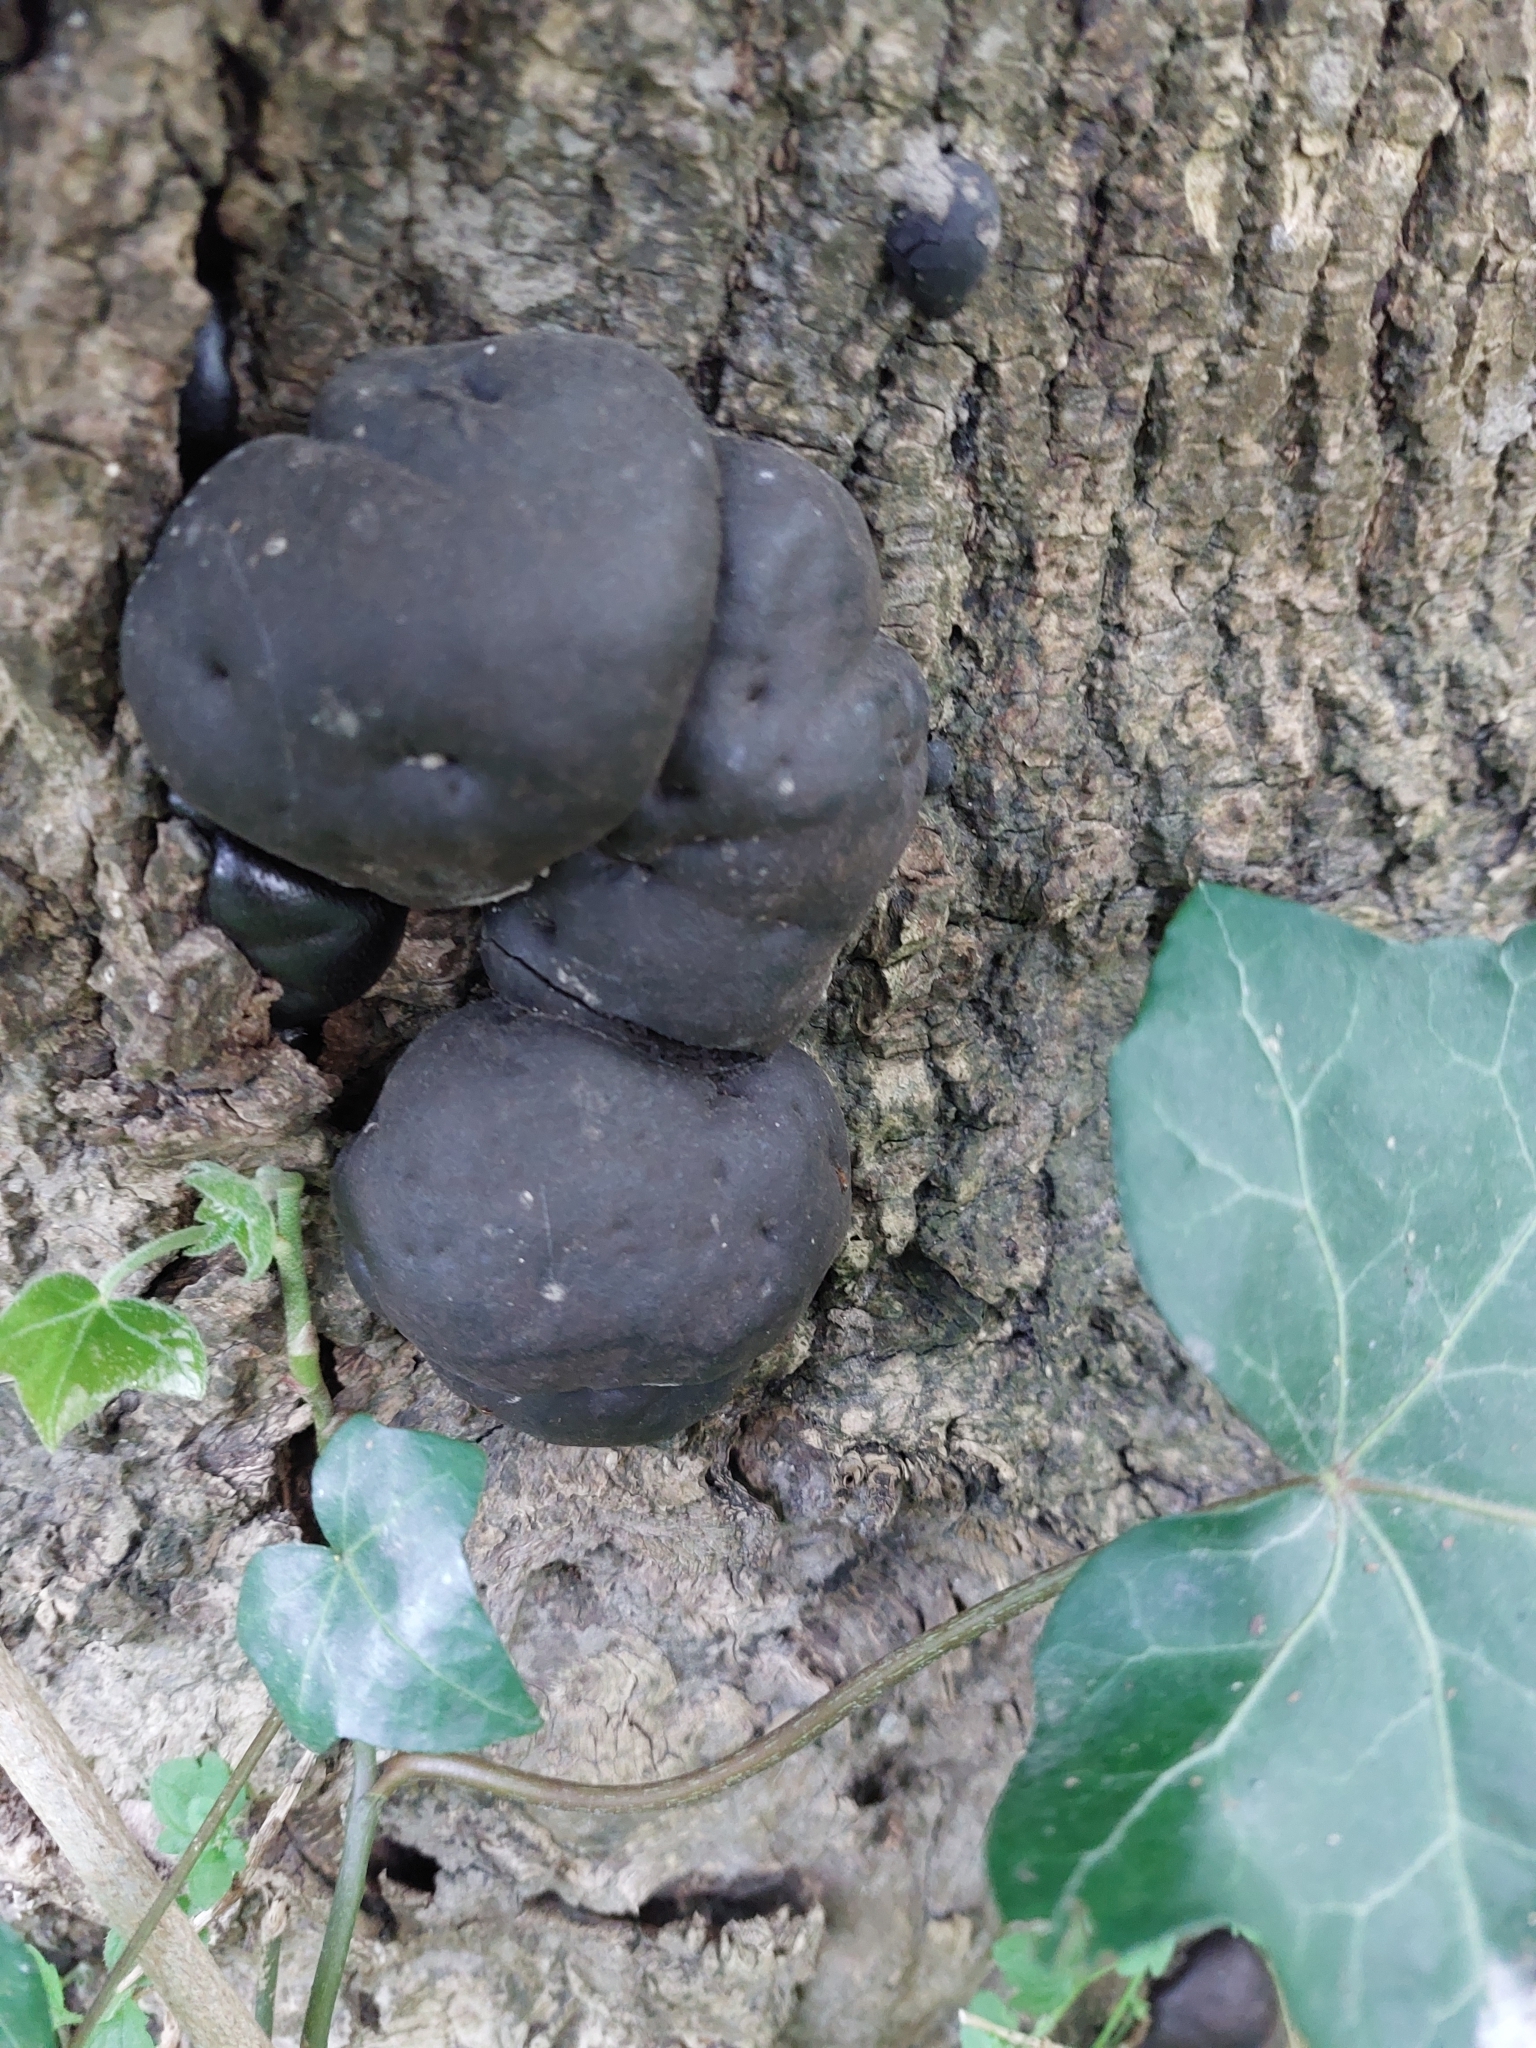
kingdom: Fungi
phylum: Ascomycota
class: Sordariomycetes
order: Xylariales
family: Hypoxylaceae
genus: Daldinia
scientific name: Daldinia concentrica
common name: Cramp balls
